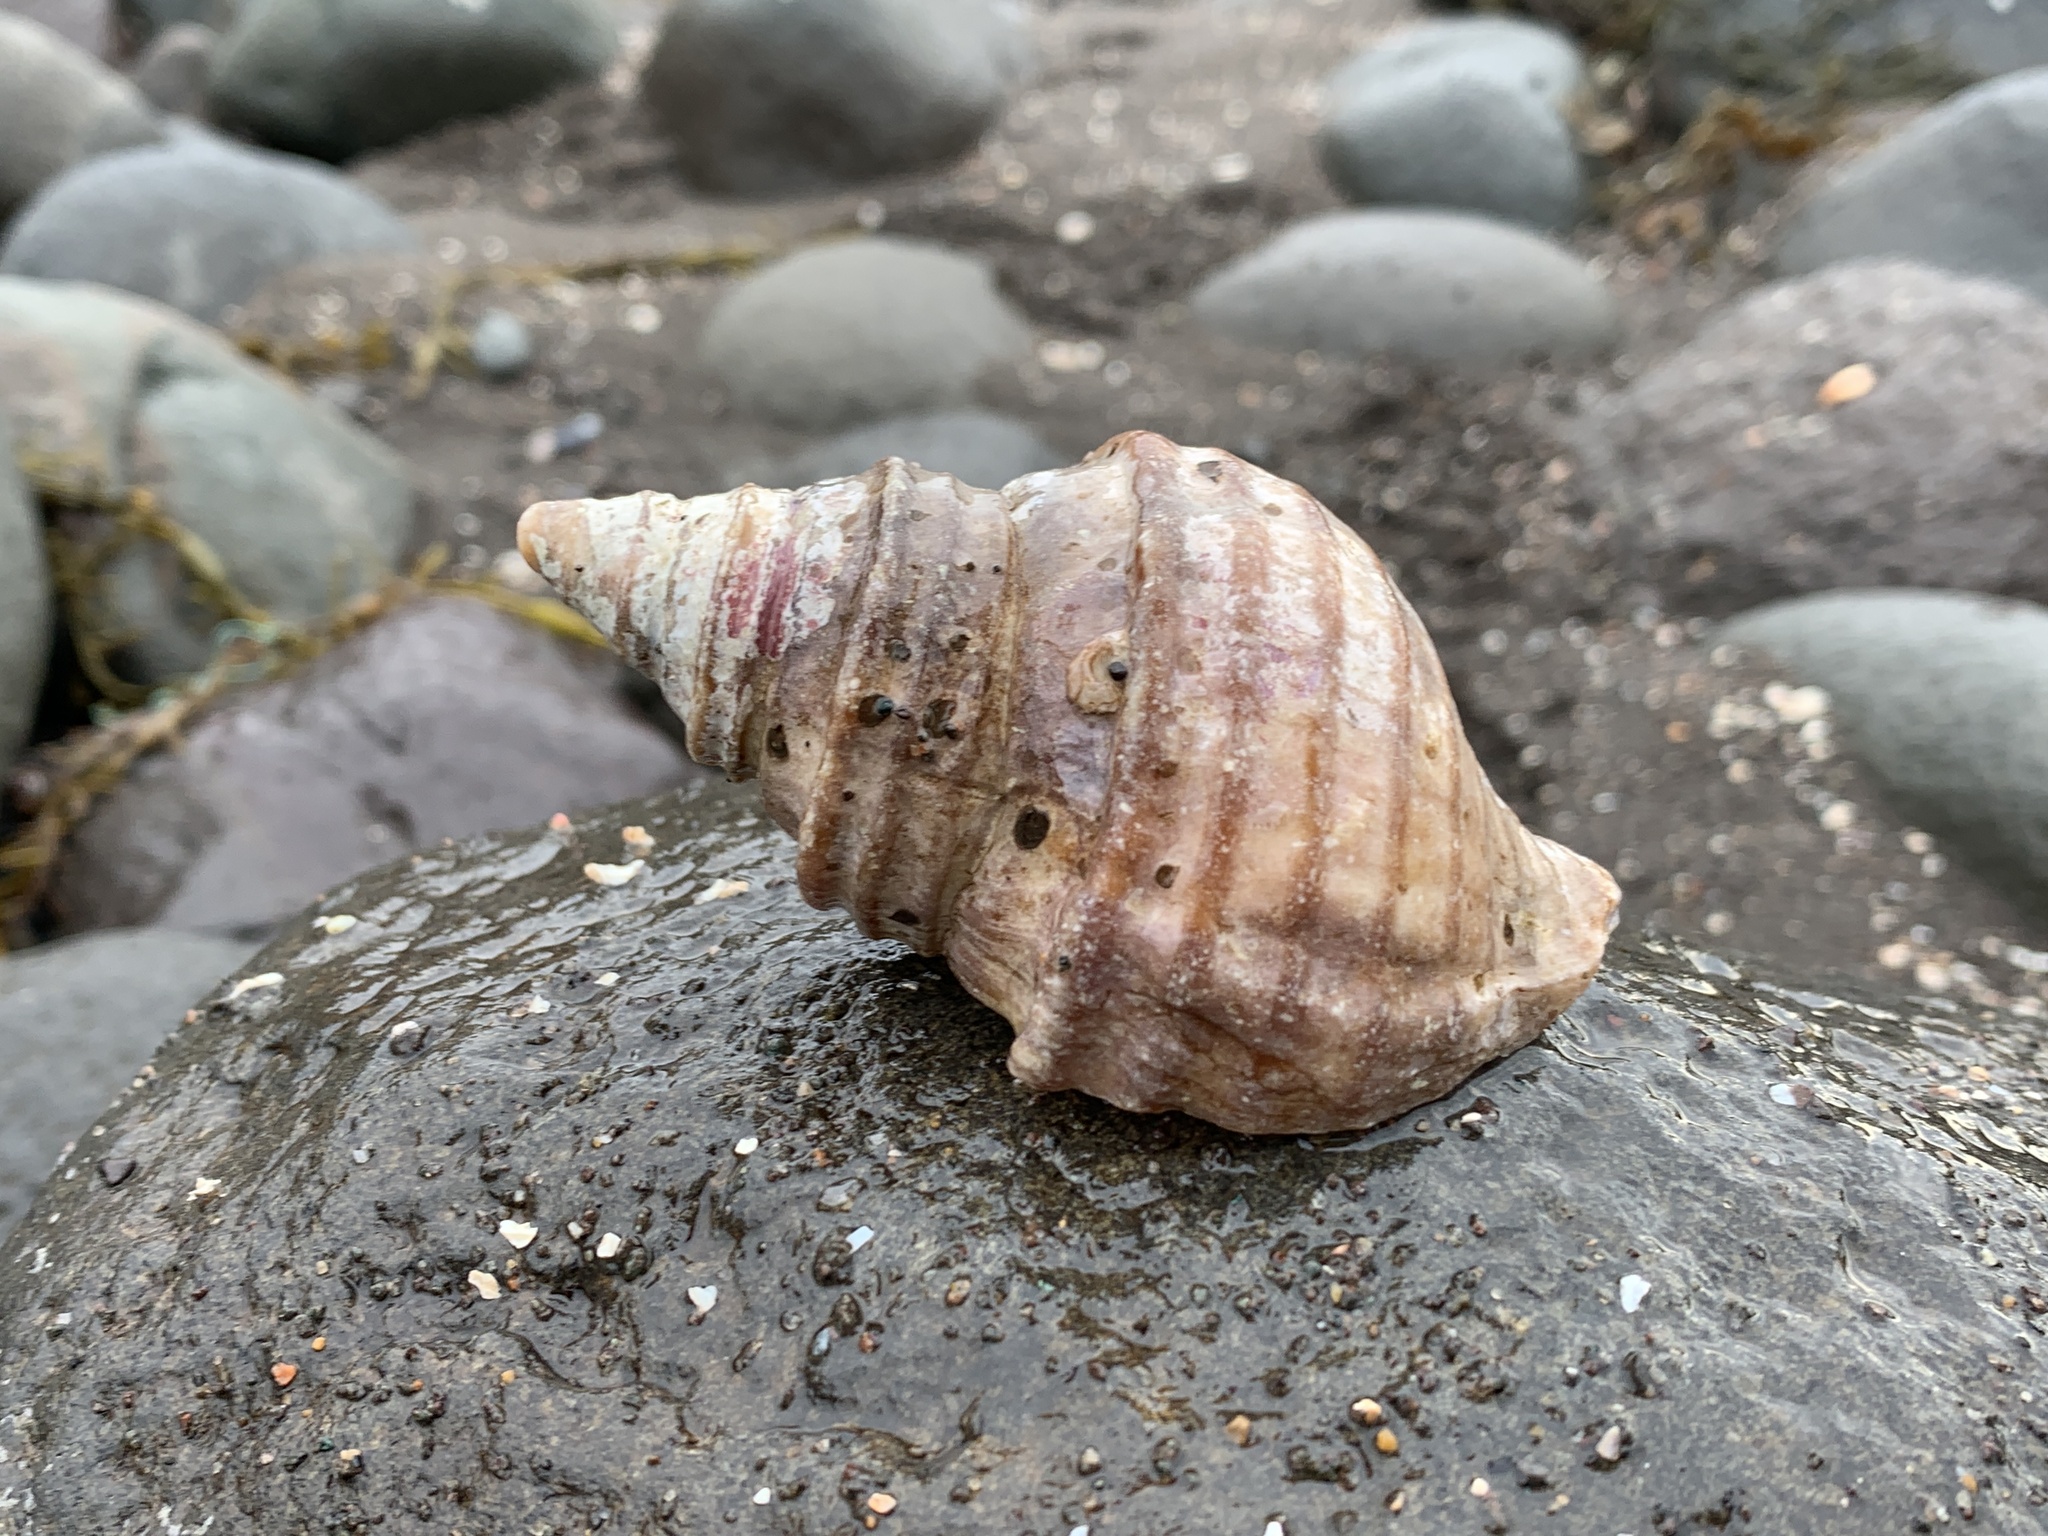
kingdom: Animalia
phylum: Mollusca
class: Gastropoda
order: Neogastropoda
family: Buccinidae
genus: Neptunea
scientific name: Neptunea decemcostata
